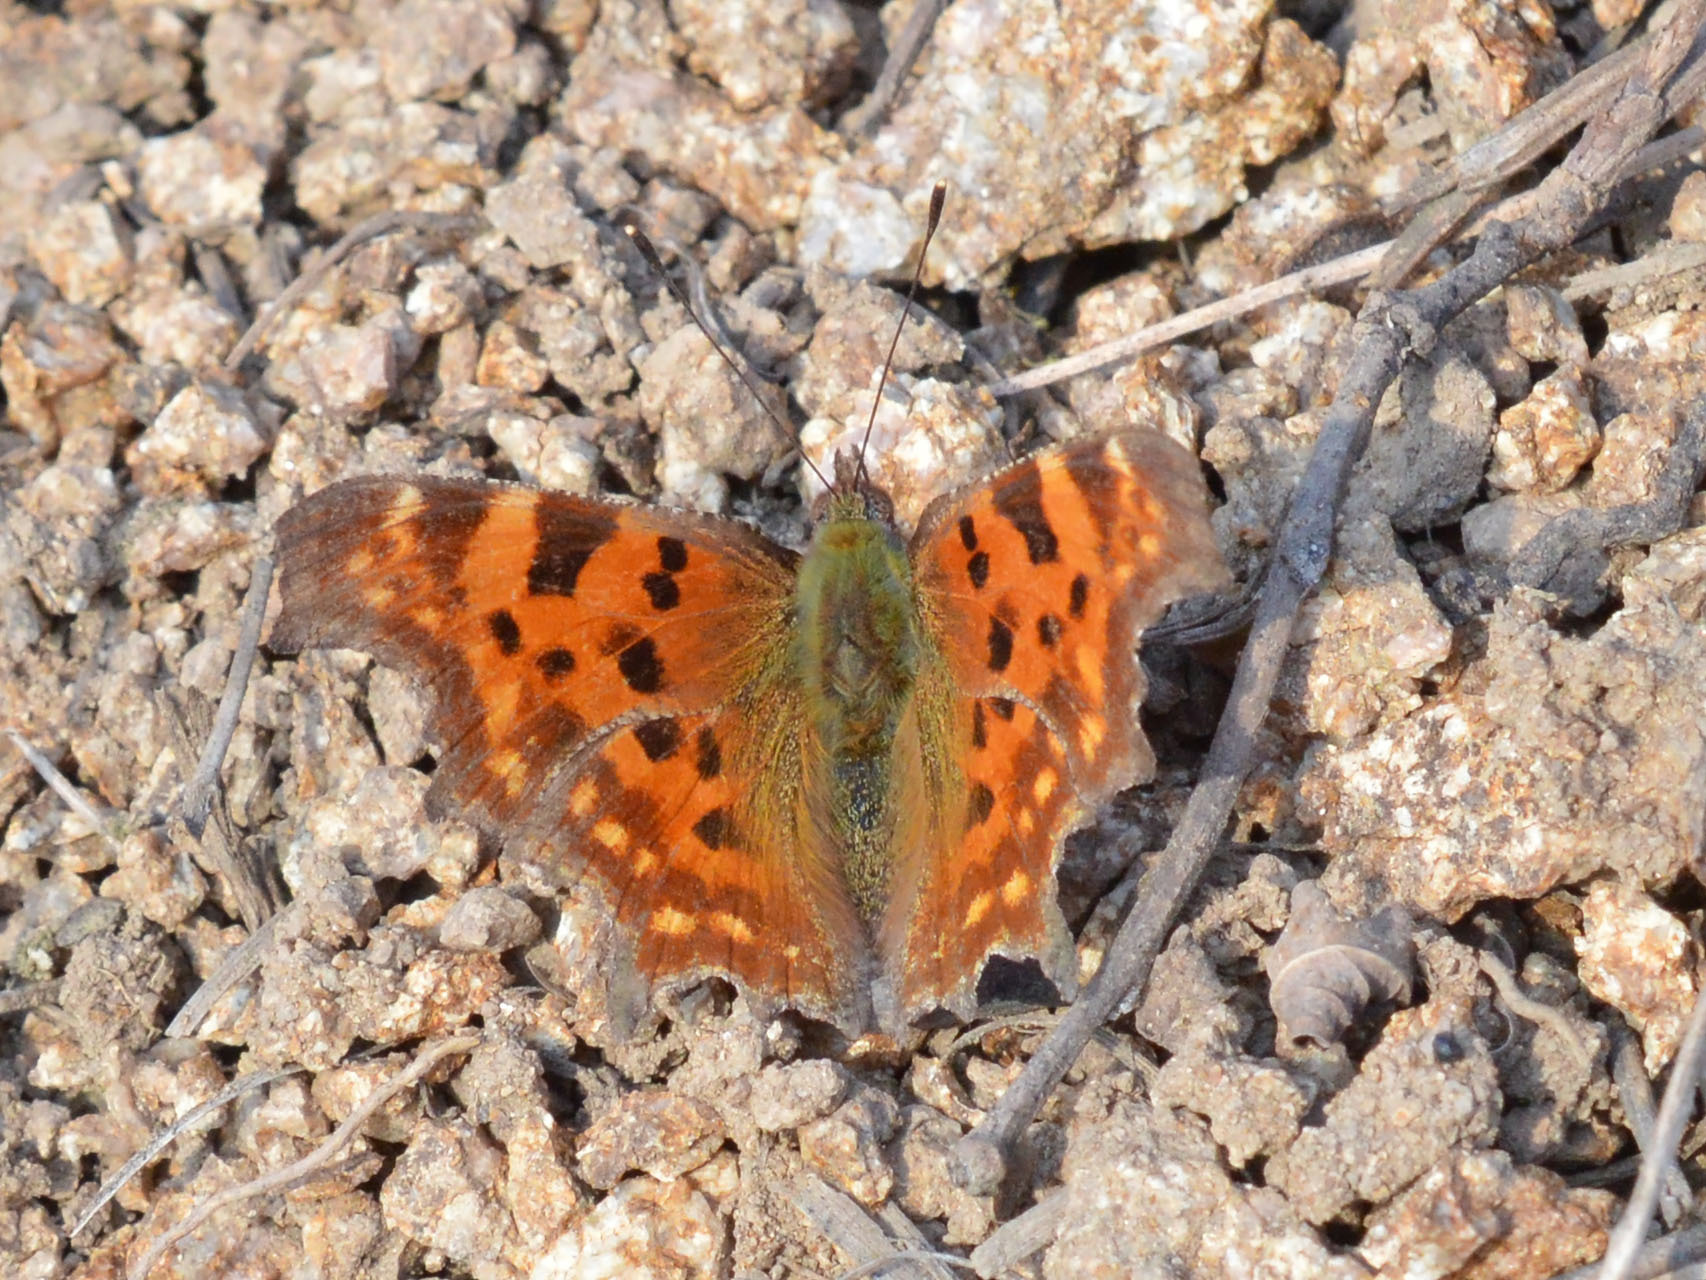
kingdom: Animalia
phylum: Arthropoda
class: Insecta
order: Lepidoptera
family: Nymphalidae
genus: Polygonia
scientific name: Polygonia c-album
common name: Comma
